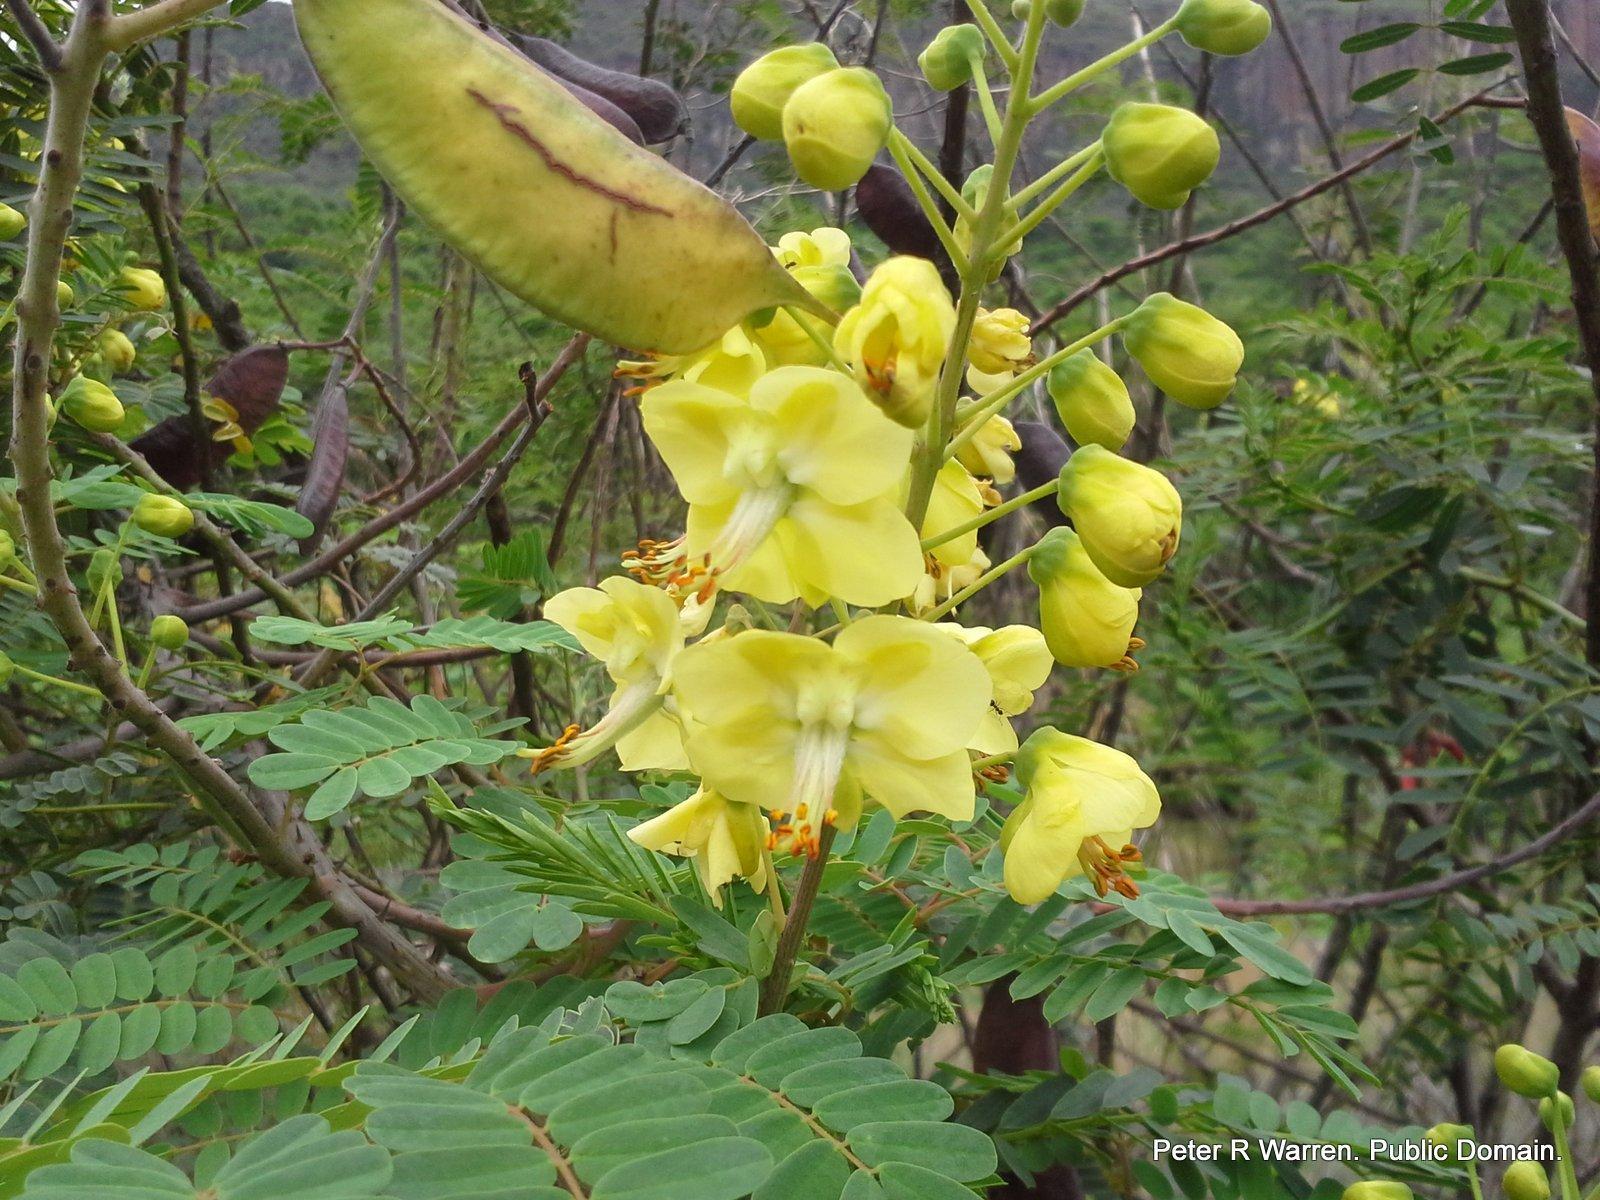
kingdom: Plantae
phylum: Tracheophyta
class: Magnoliopsida
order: Fabales
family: Fabaceae
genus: Biancaea
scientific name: Biancaea decapetala
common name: Cat's claw
